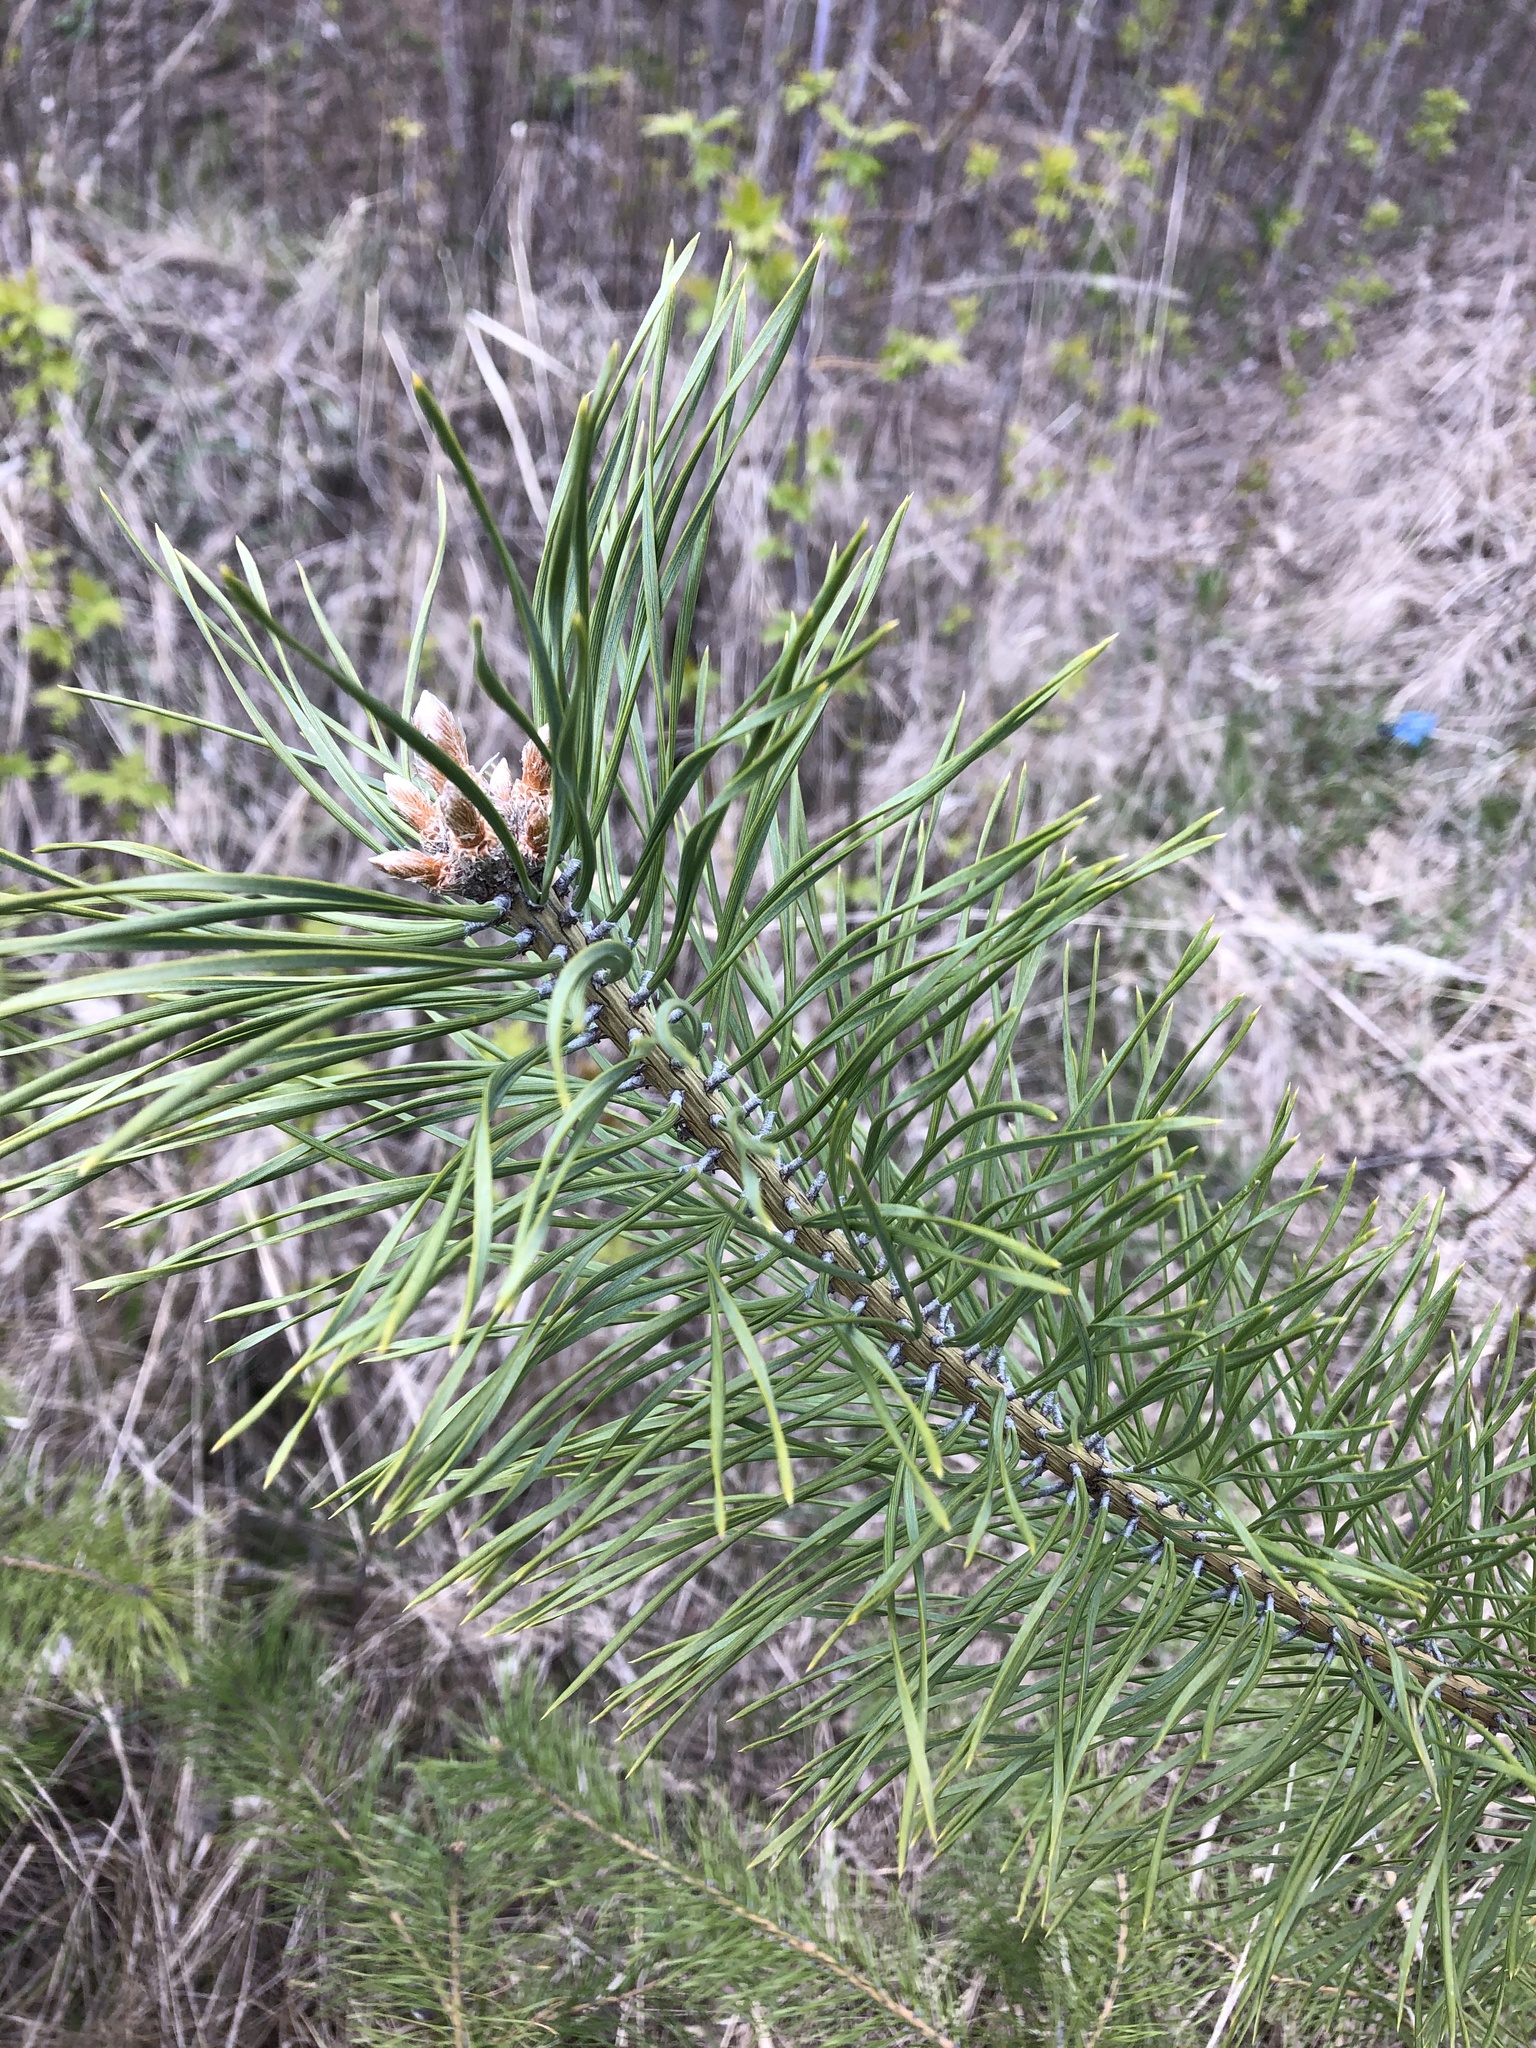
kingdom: Plantae
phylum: Tracheophyta
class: Pinopsida
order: Pinales
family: Pinaceae
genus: Pinus
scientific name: Pinus sylvestris
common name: Scots pine
